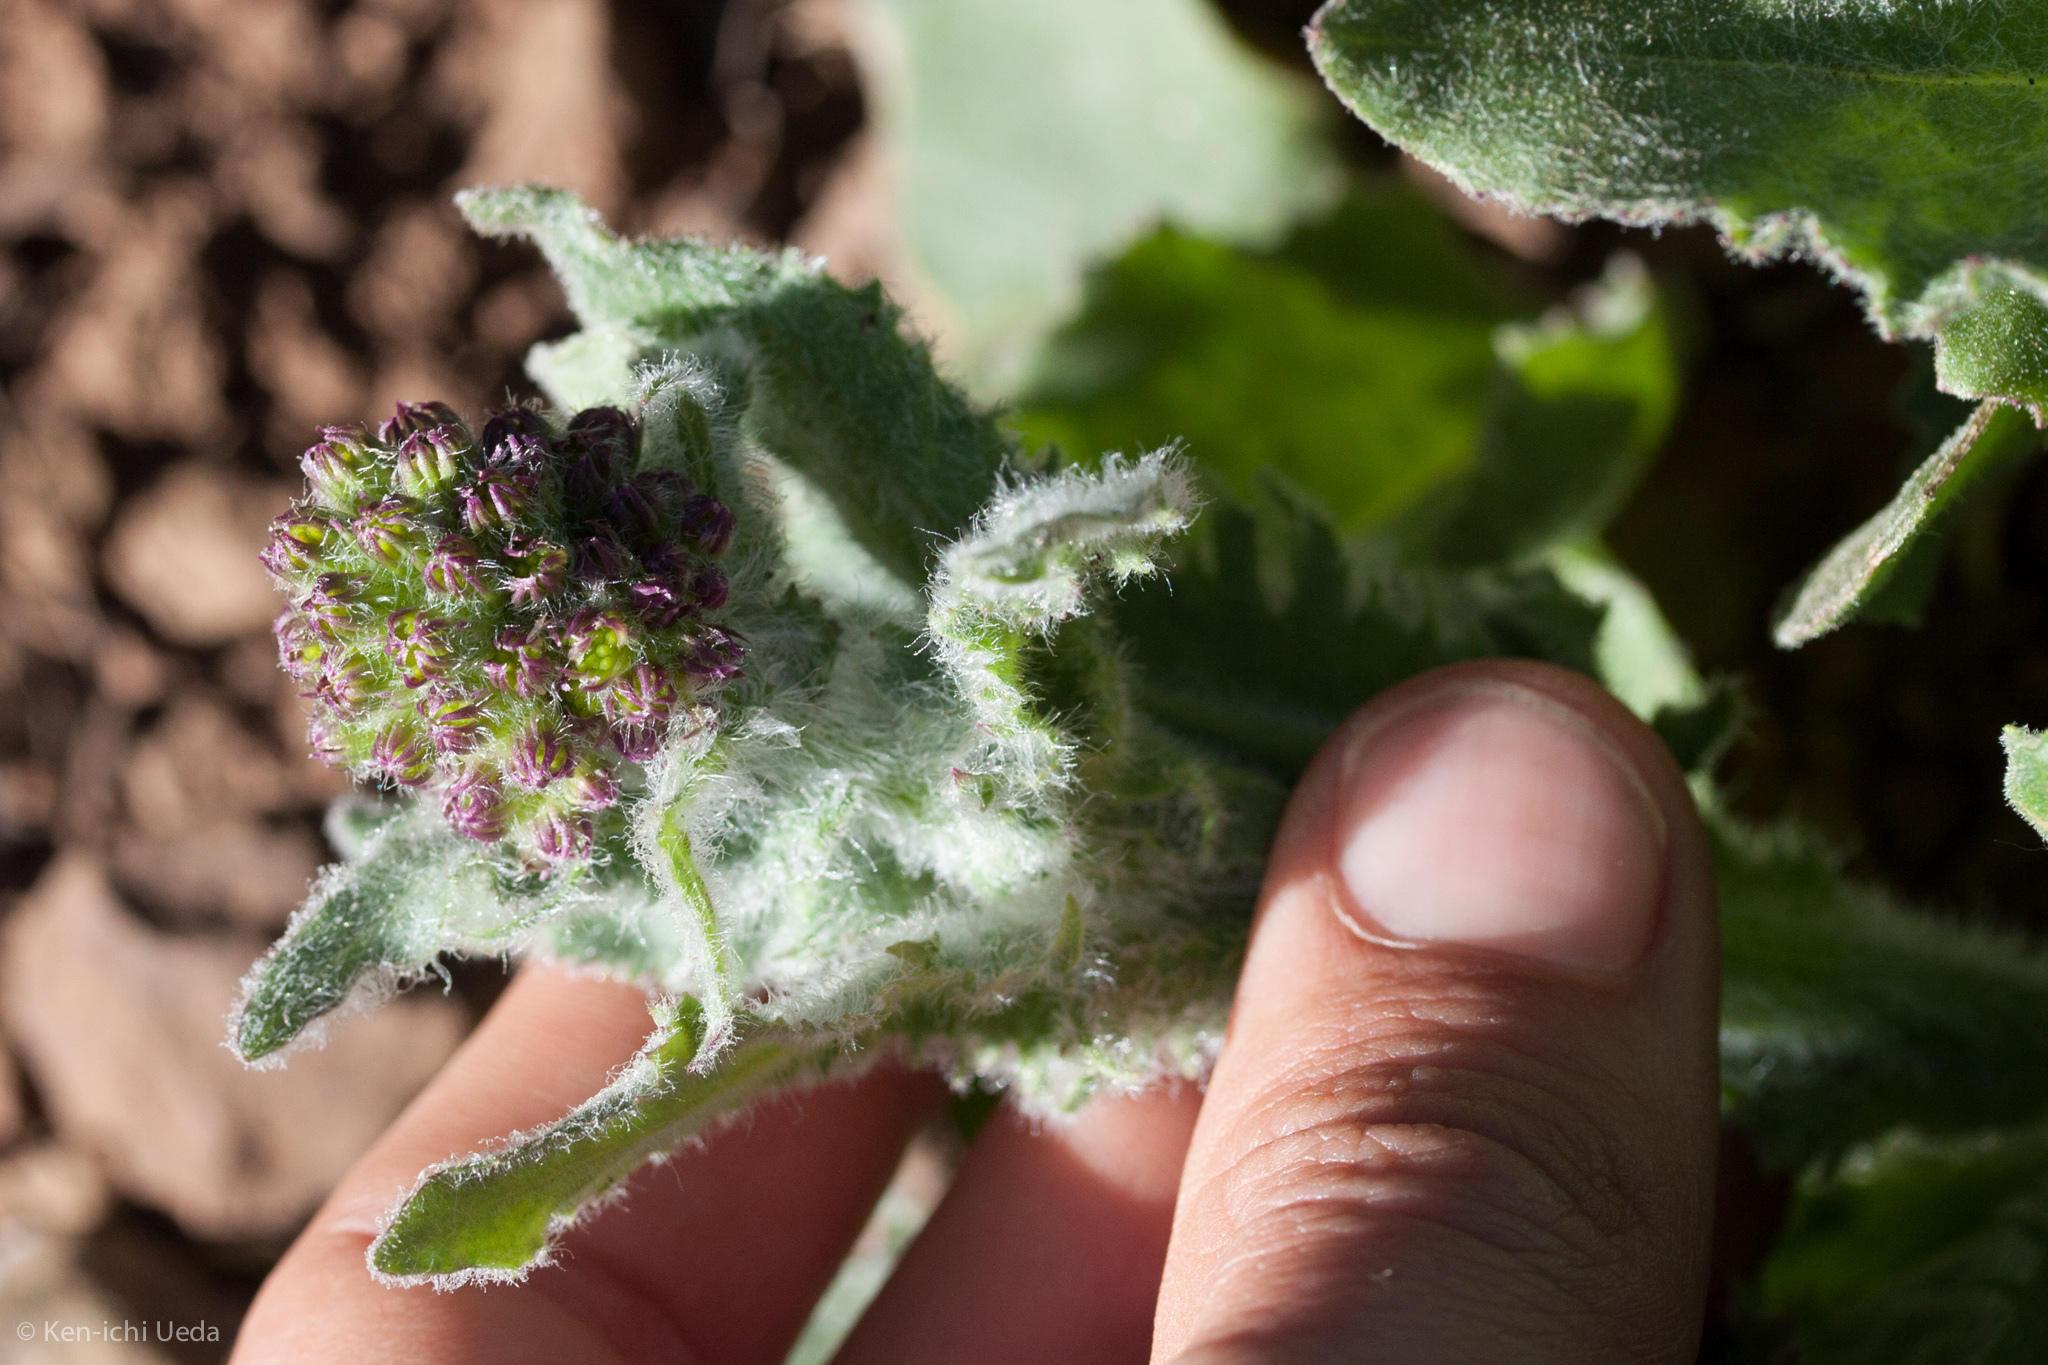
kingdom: Plantae
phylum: Tracheophyta
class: Magnoliopsida
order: Asterales
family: Asteraceae
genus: Senecio
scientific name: Senecio aronicoides
